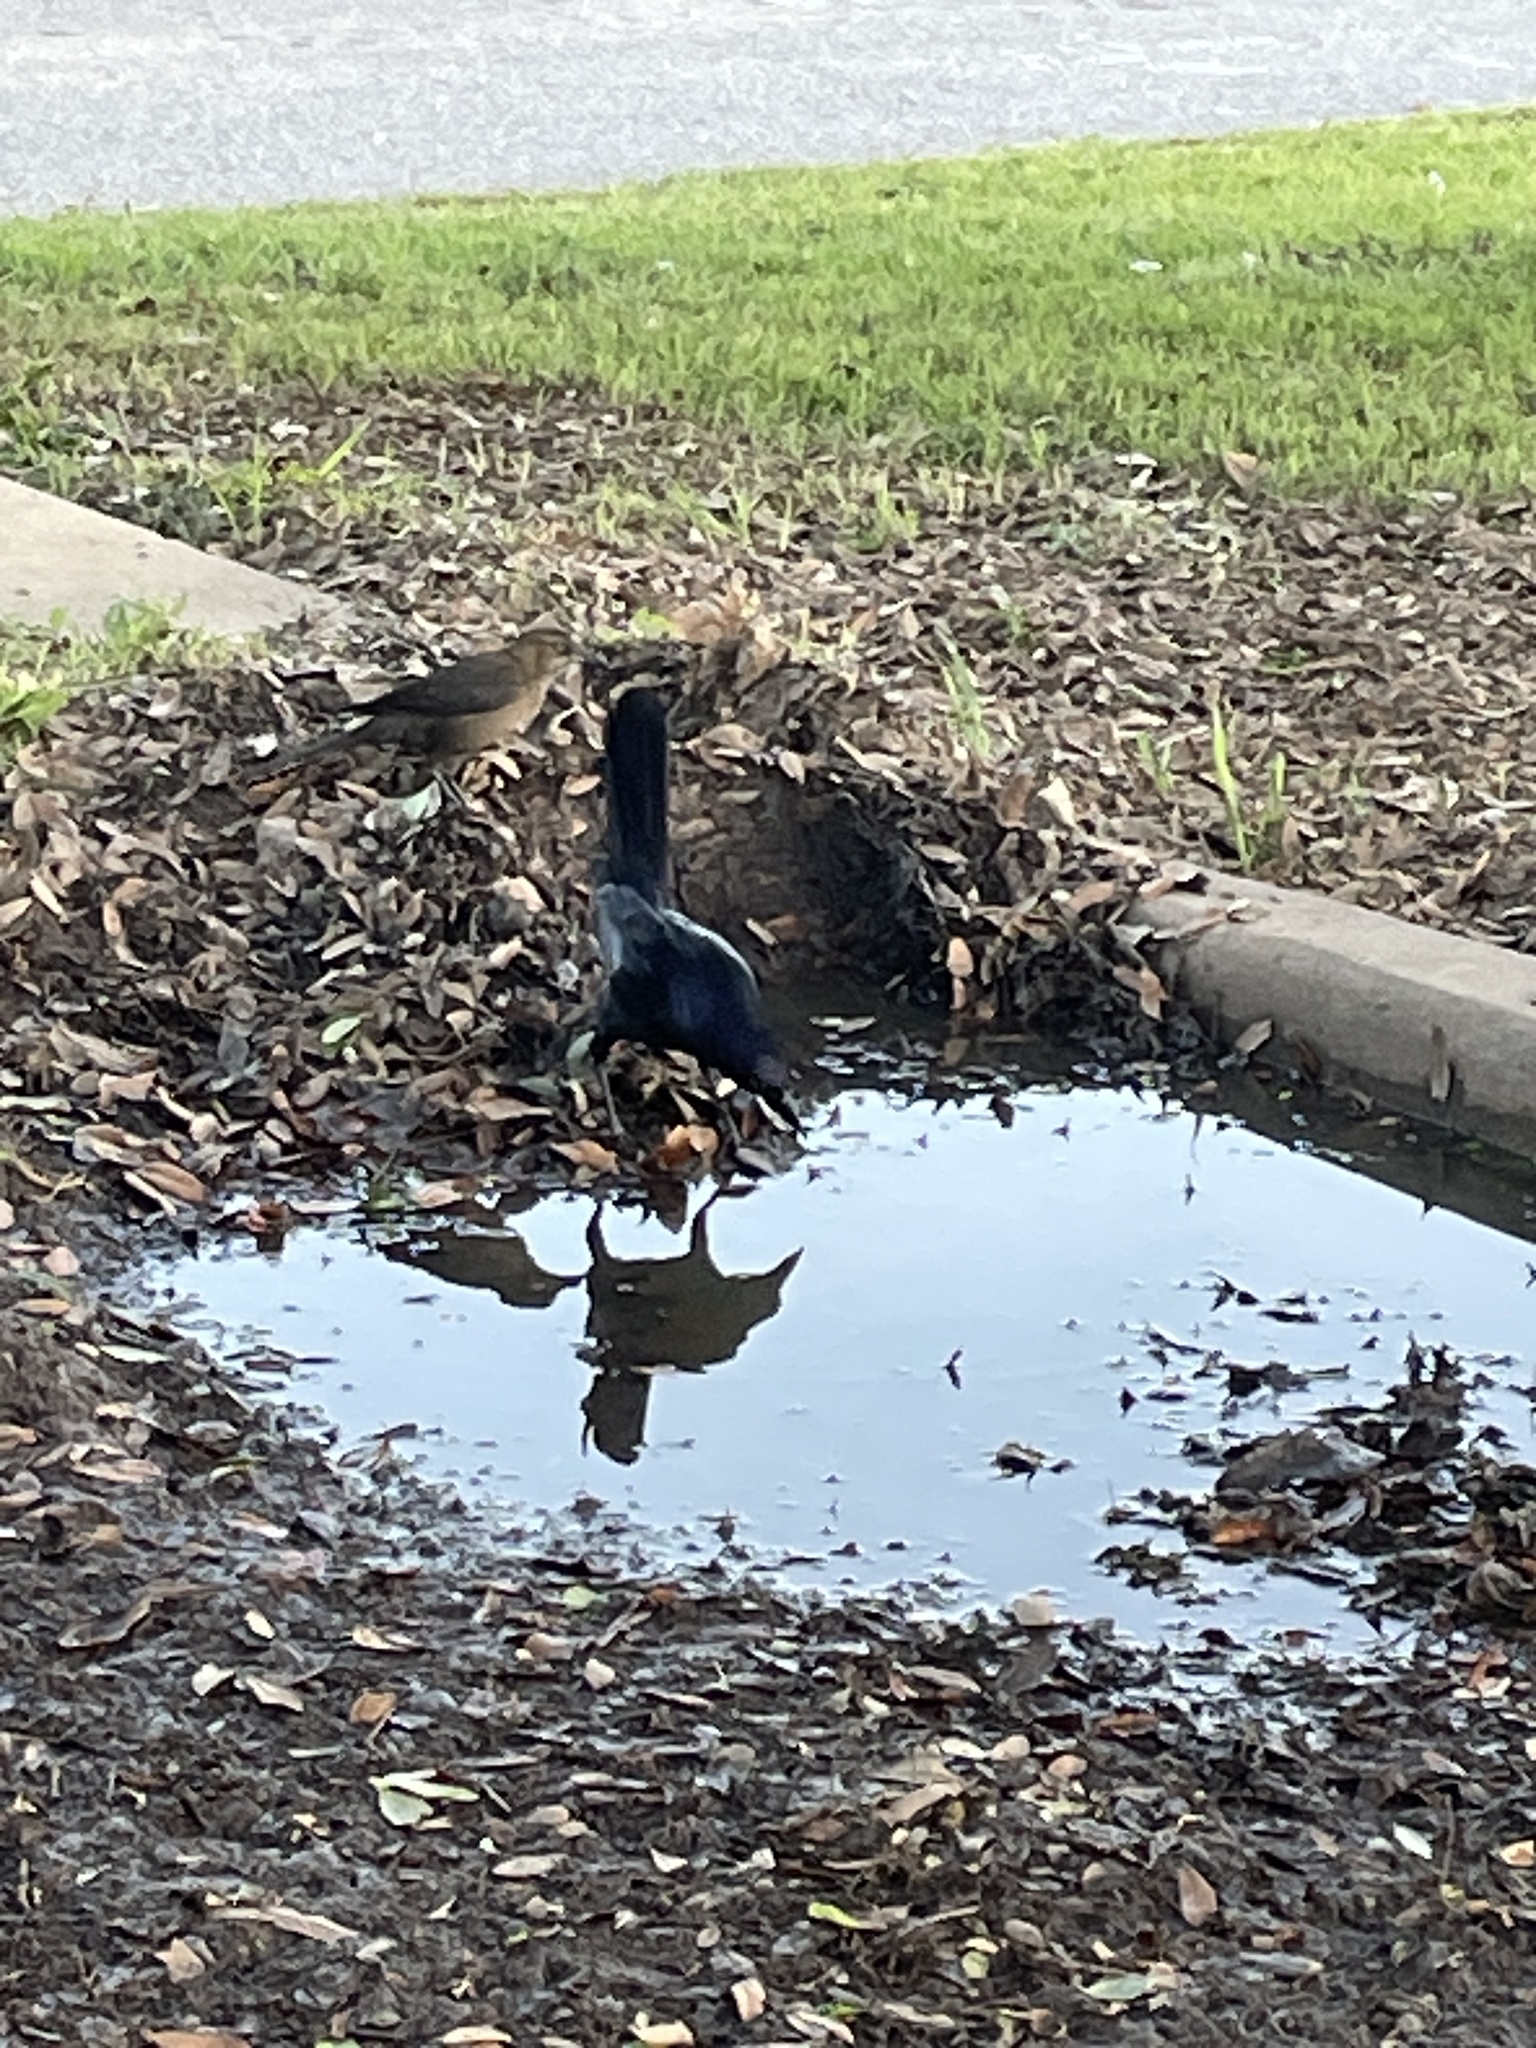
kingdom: Animalia
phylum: Chordata
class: Aves
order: Passeriformes
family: Icteridae
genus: Quiscalus
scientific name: Quiscalus mexicanus
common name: Great-tailed grackle
